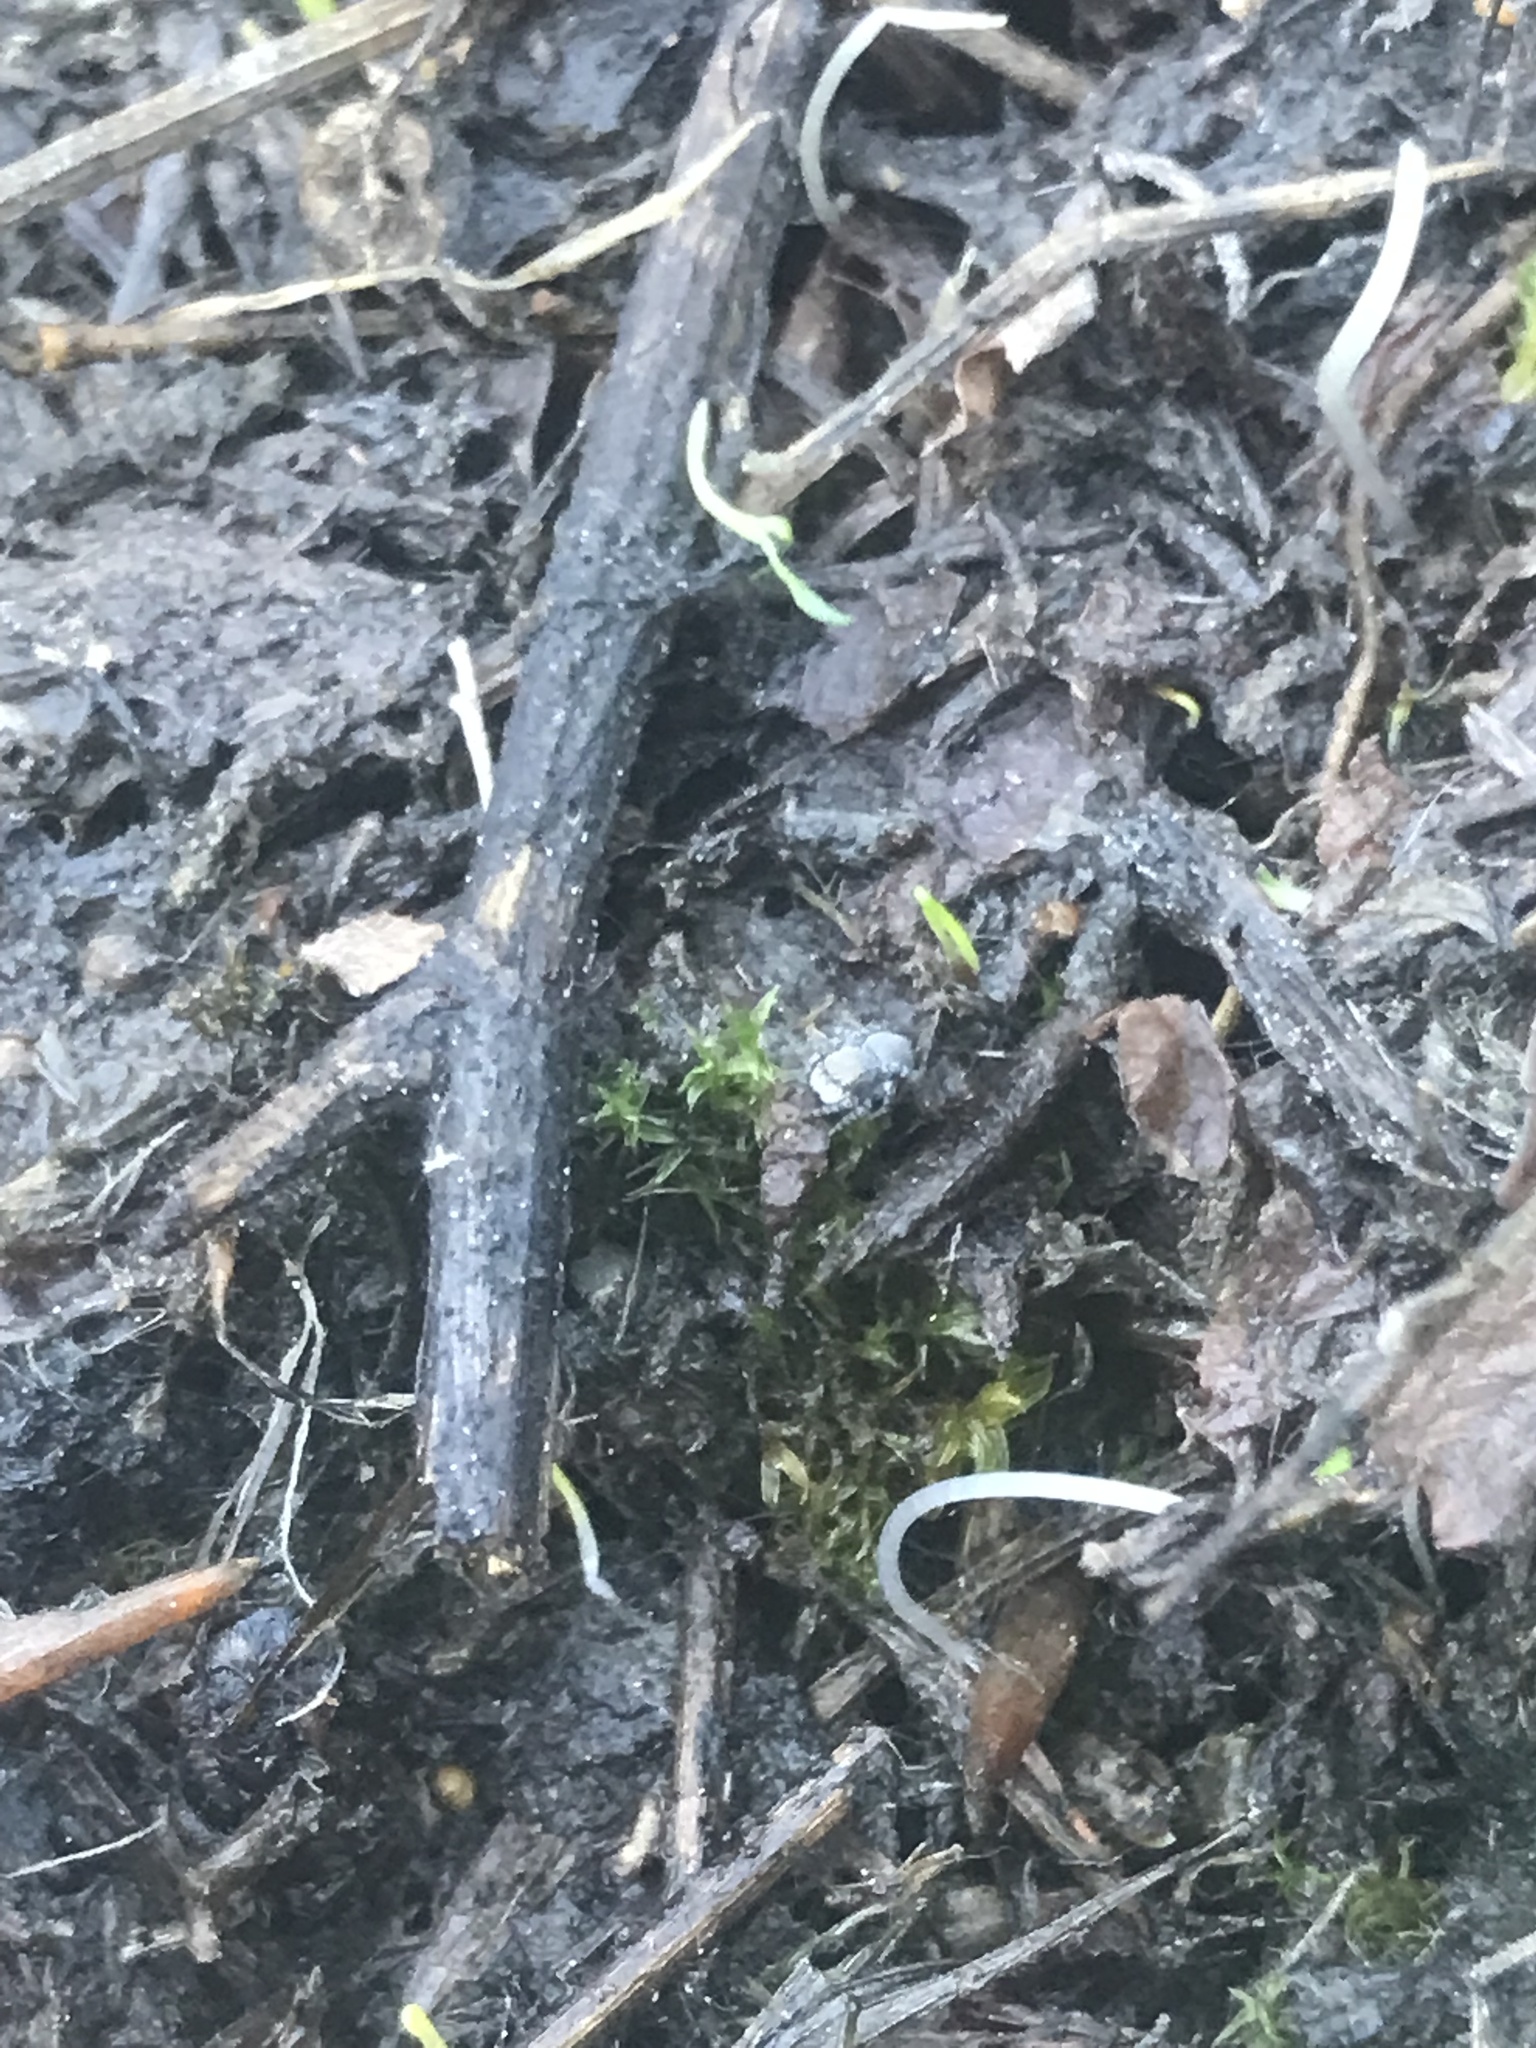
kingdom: Animalia
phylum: Arthropoda
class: Arachnida
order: Araneae
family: Salticidae
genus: Talavera
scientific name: Talavera minuta
